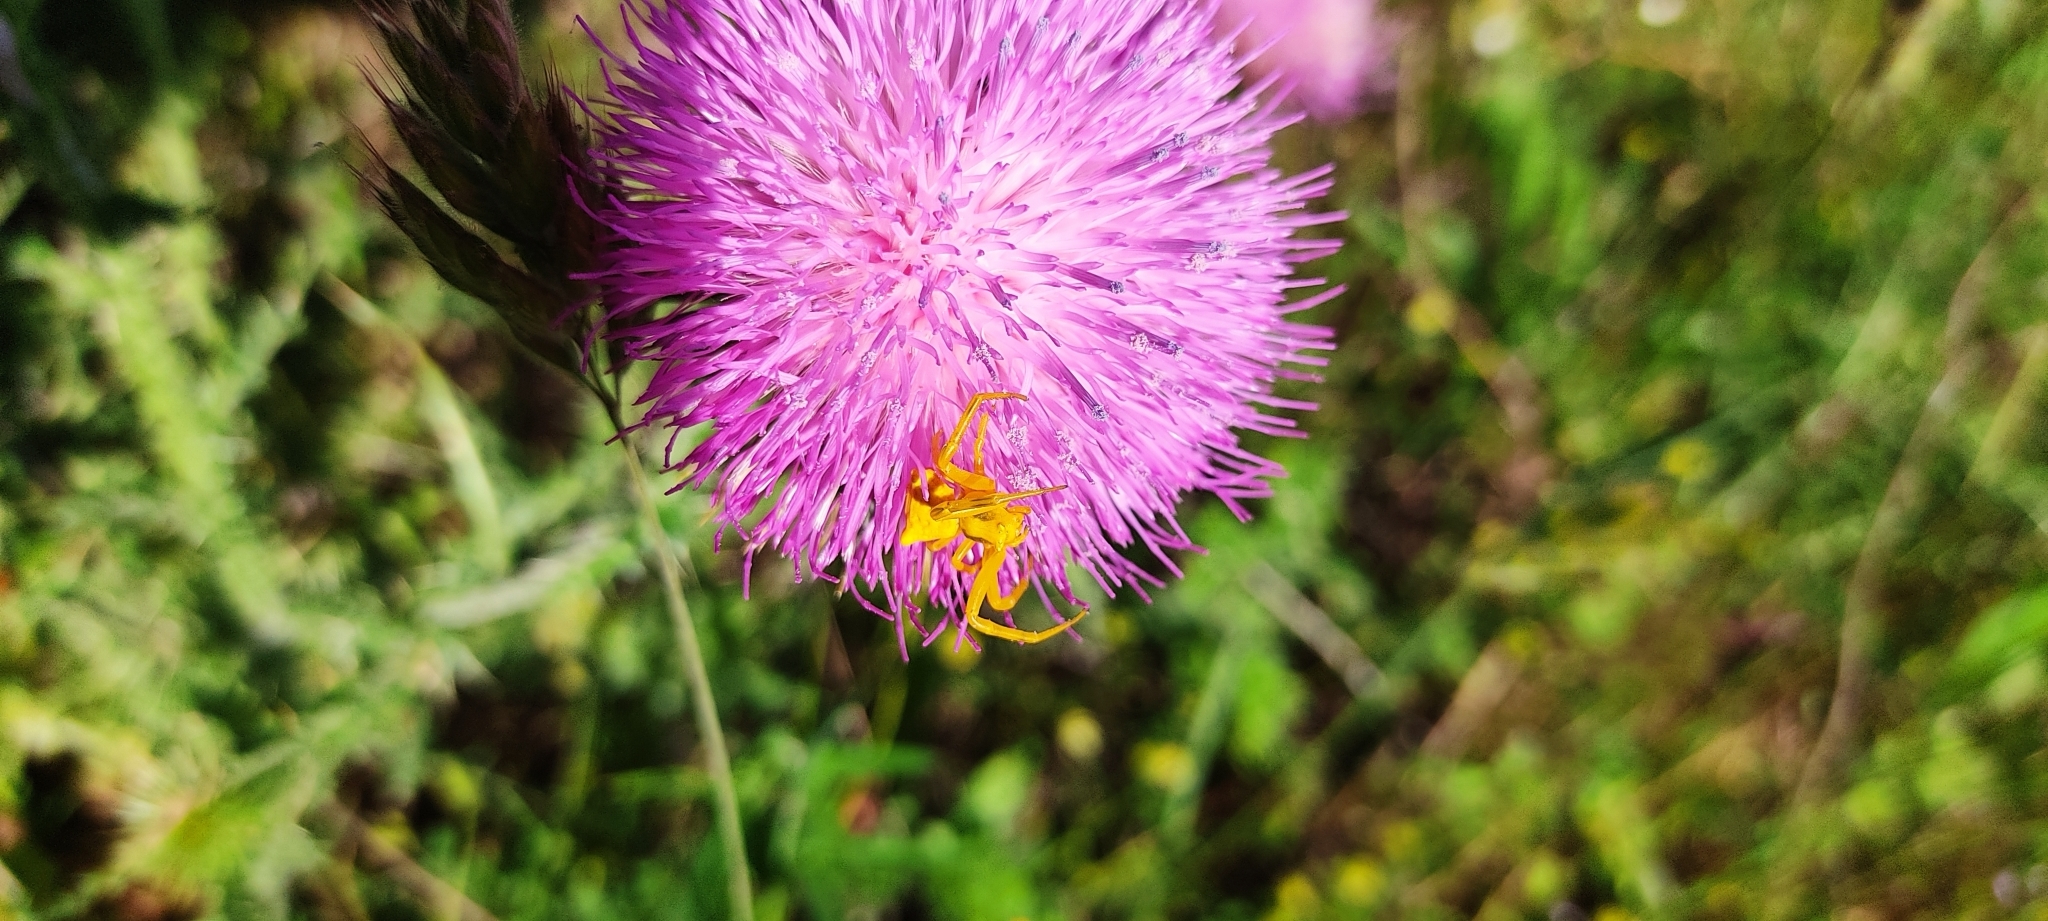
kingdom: Animalia
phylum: Arthropoda
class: Arachnida
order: Araneae
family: Thomisidae
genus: Thomisus
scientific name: Thomisus onustus
